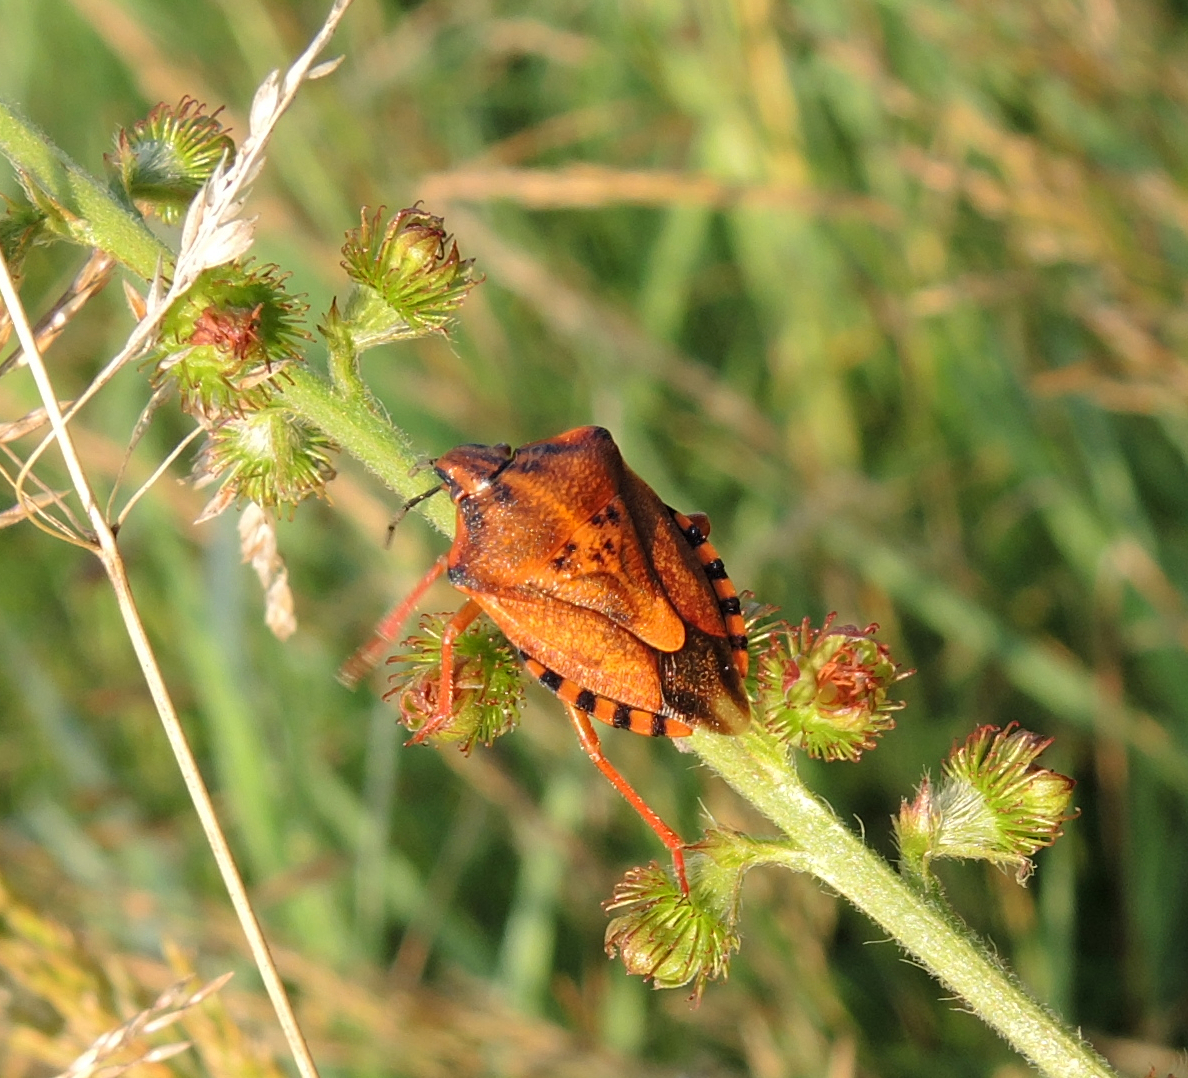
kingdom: Animalia
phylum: Arthropoda
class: Insecta
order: Hemiptera
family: Pentatomidae
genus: Carpocoris
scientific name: Carpocoris mediterraneus
